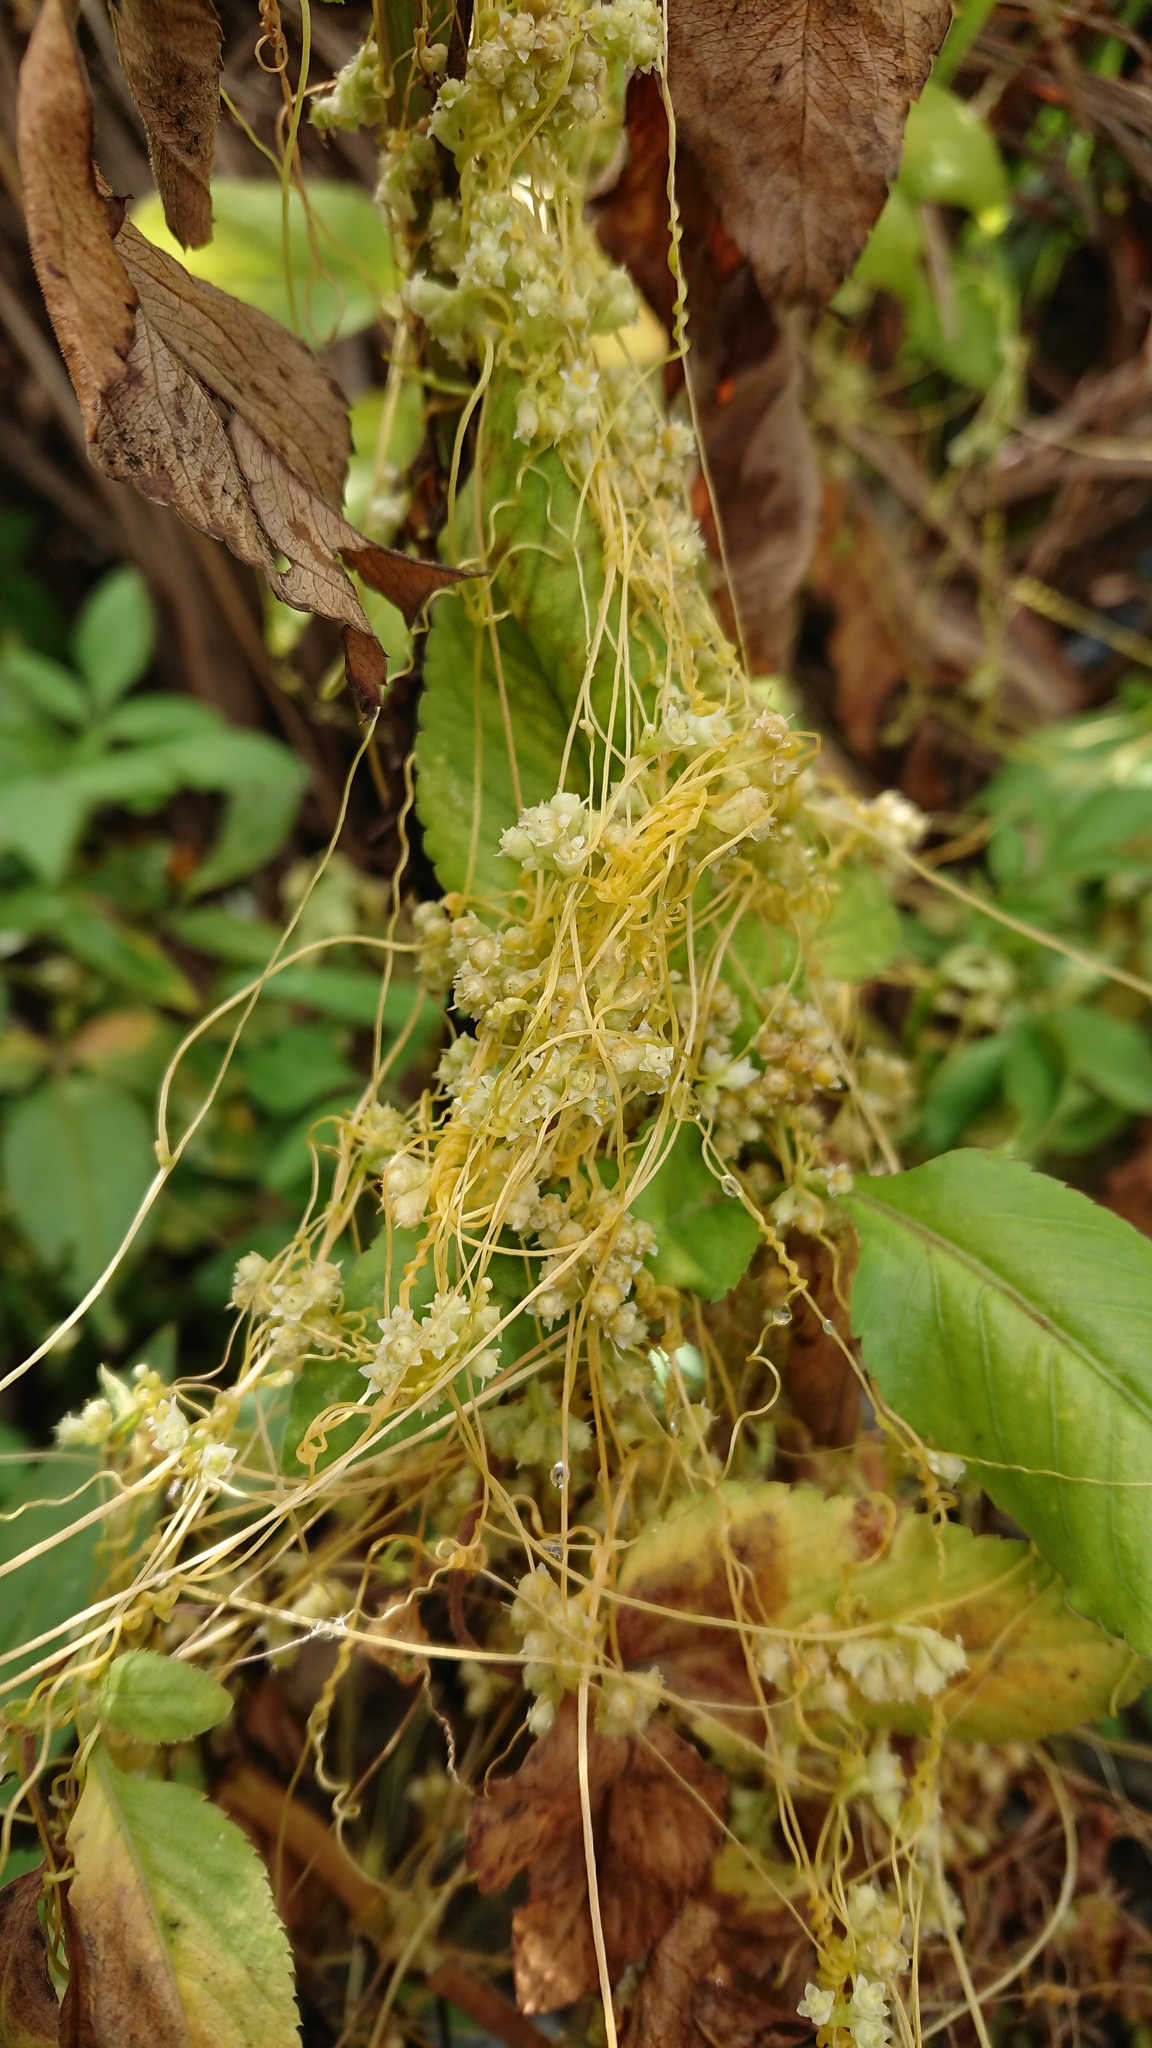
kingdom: Plantae
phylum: Tracheophyta
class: Magnoliopsida
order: Solanales
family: Convolvulaceae
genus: Cuscuta
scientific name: Cuscuta campestris
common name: Yellow dodder
